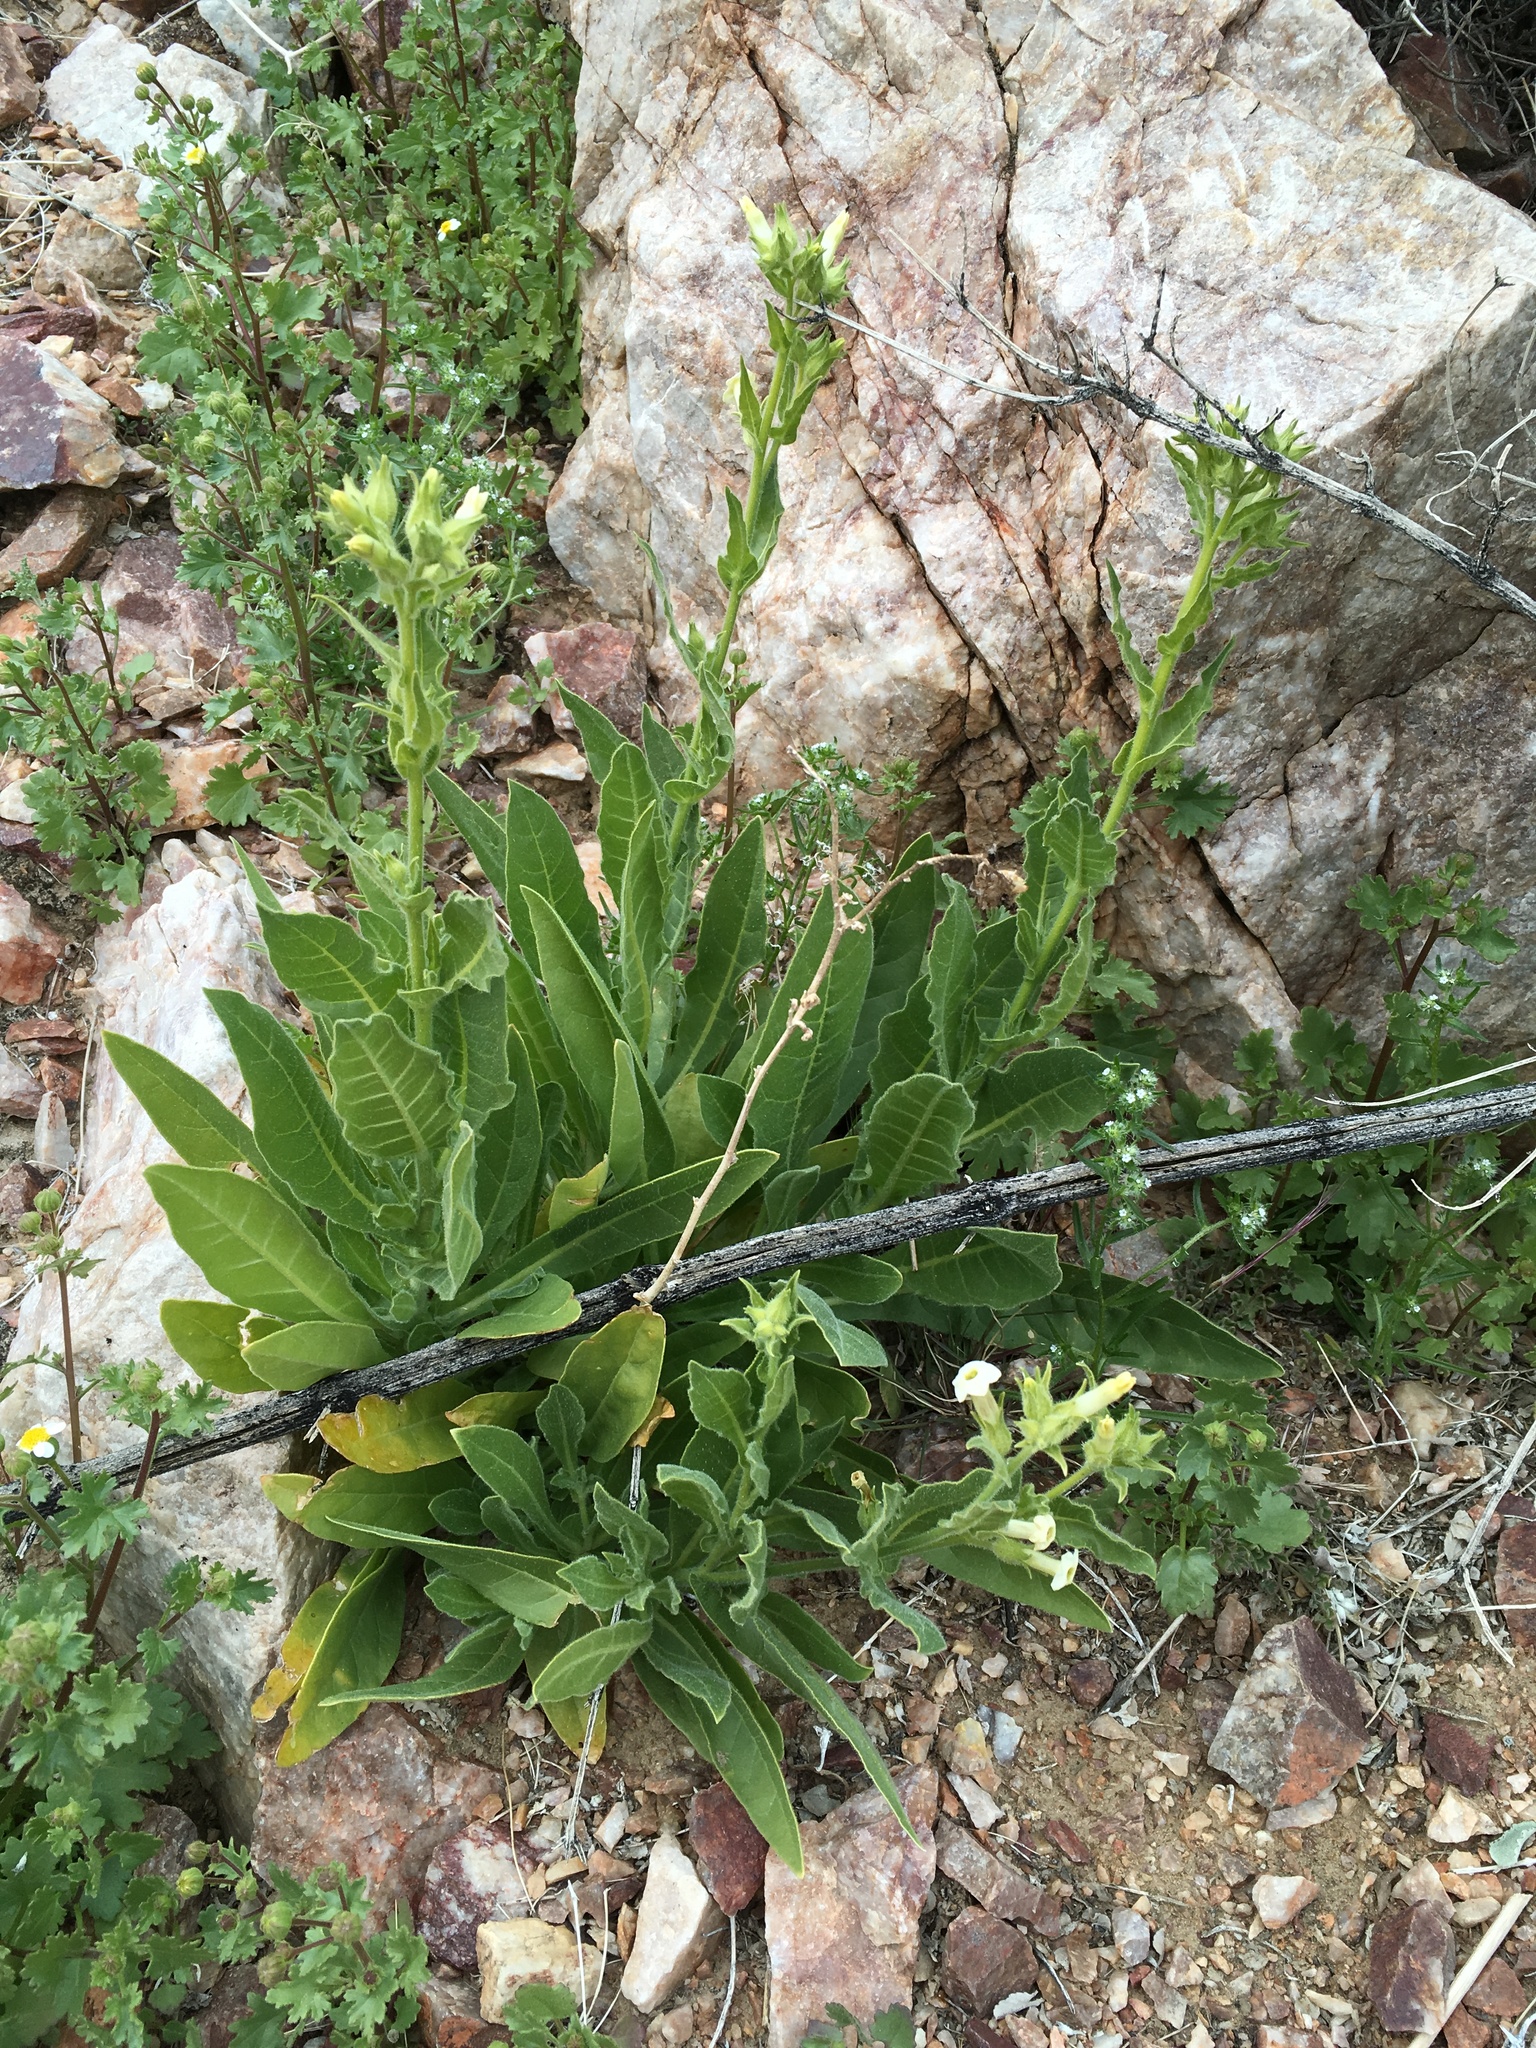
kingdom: Plantae
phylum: Tracheophyta
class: Magnoliopsida
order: Solanales
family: Solanaceae
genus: Nicotiana
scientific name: Nicotiana obtusifolia
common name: Desert tobacco
